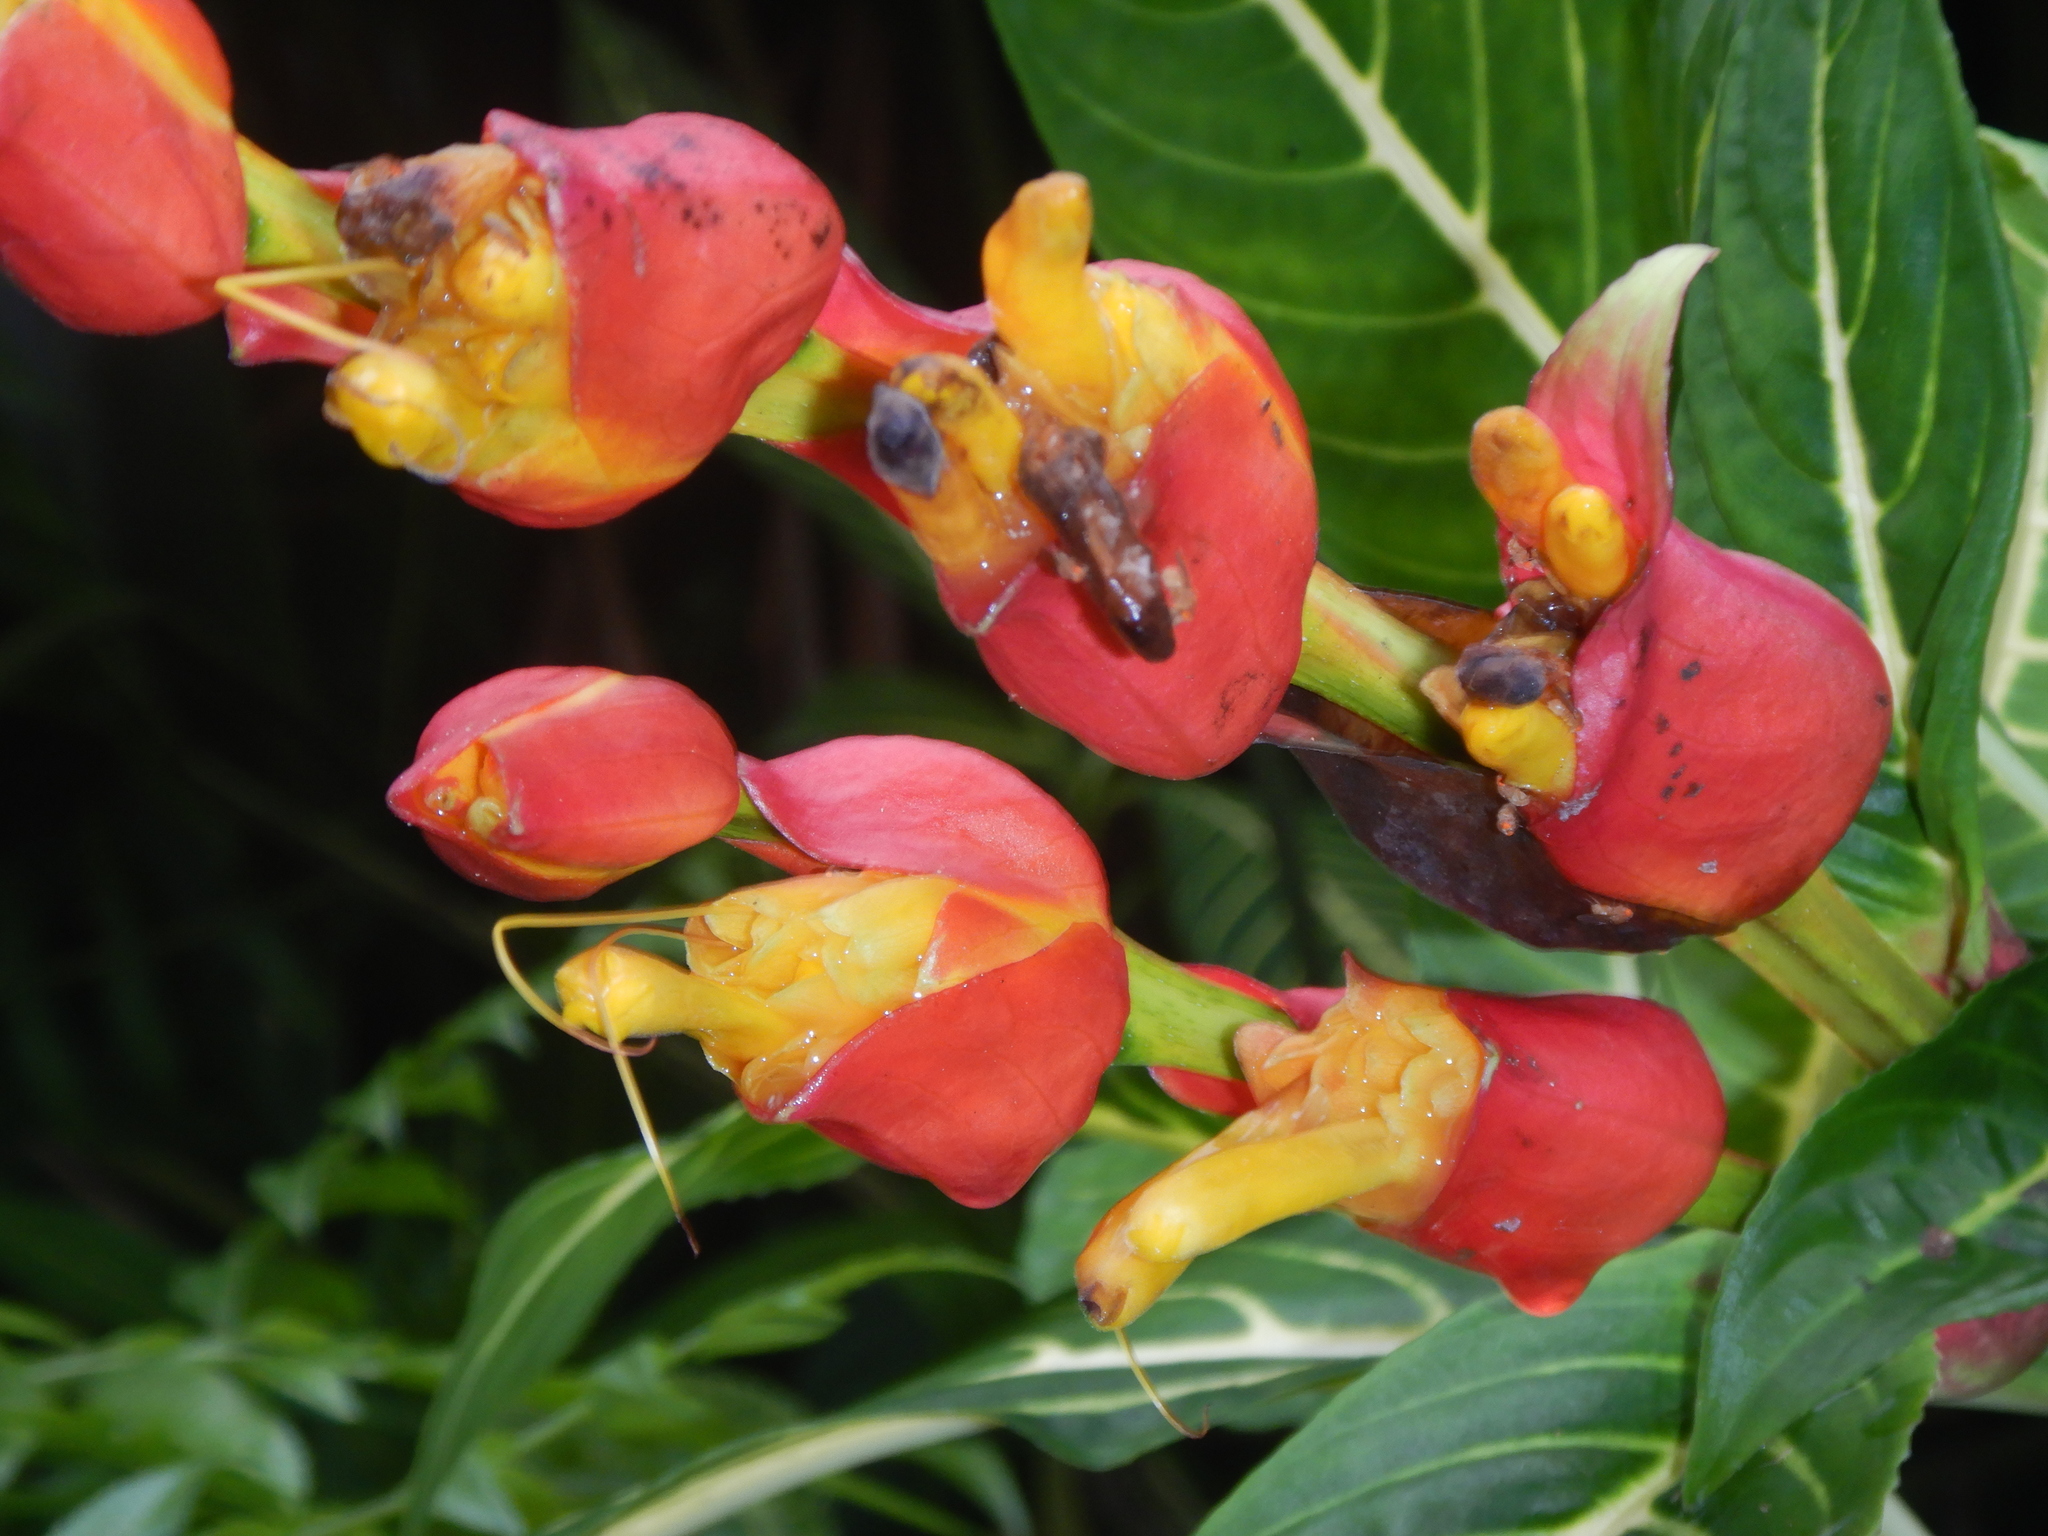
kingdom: Plantae
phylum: Tracheophyta
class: Magnoliopsida
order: Lamiales
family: Acanthaceae
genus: Sanchezia
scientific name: Sanchezia oblonga
